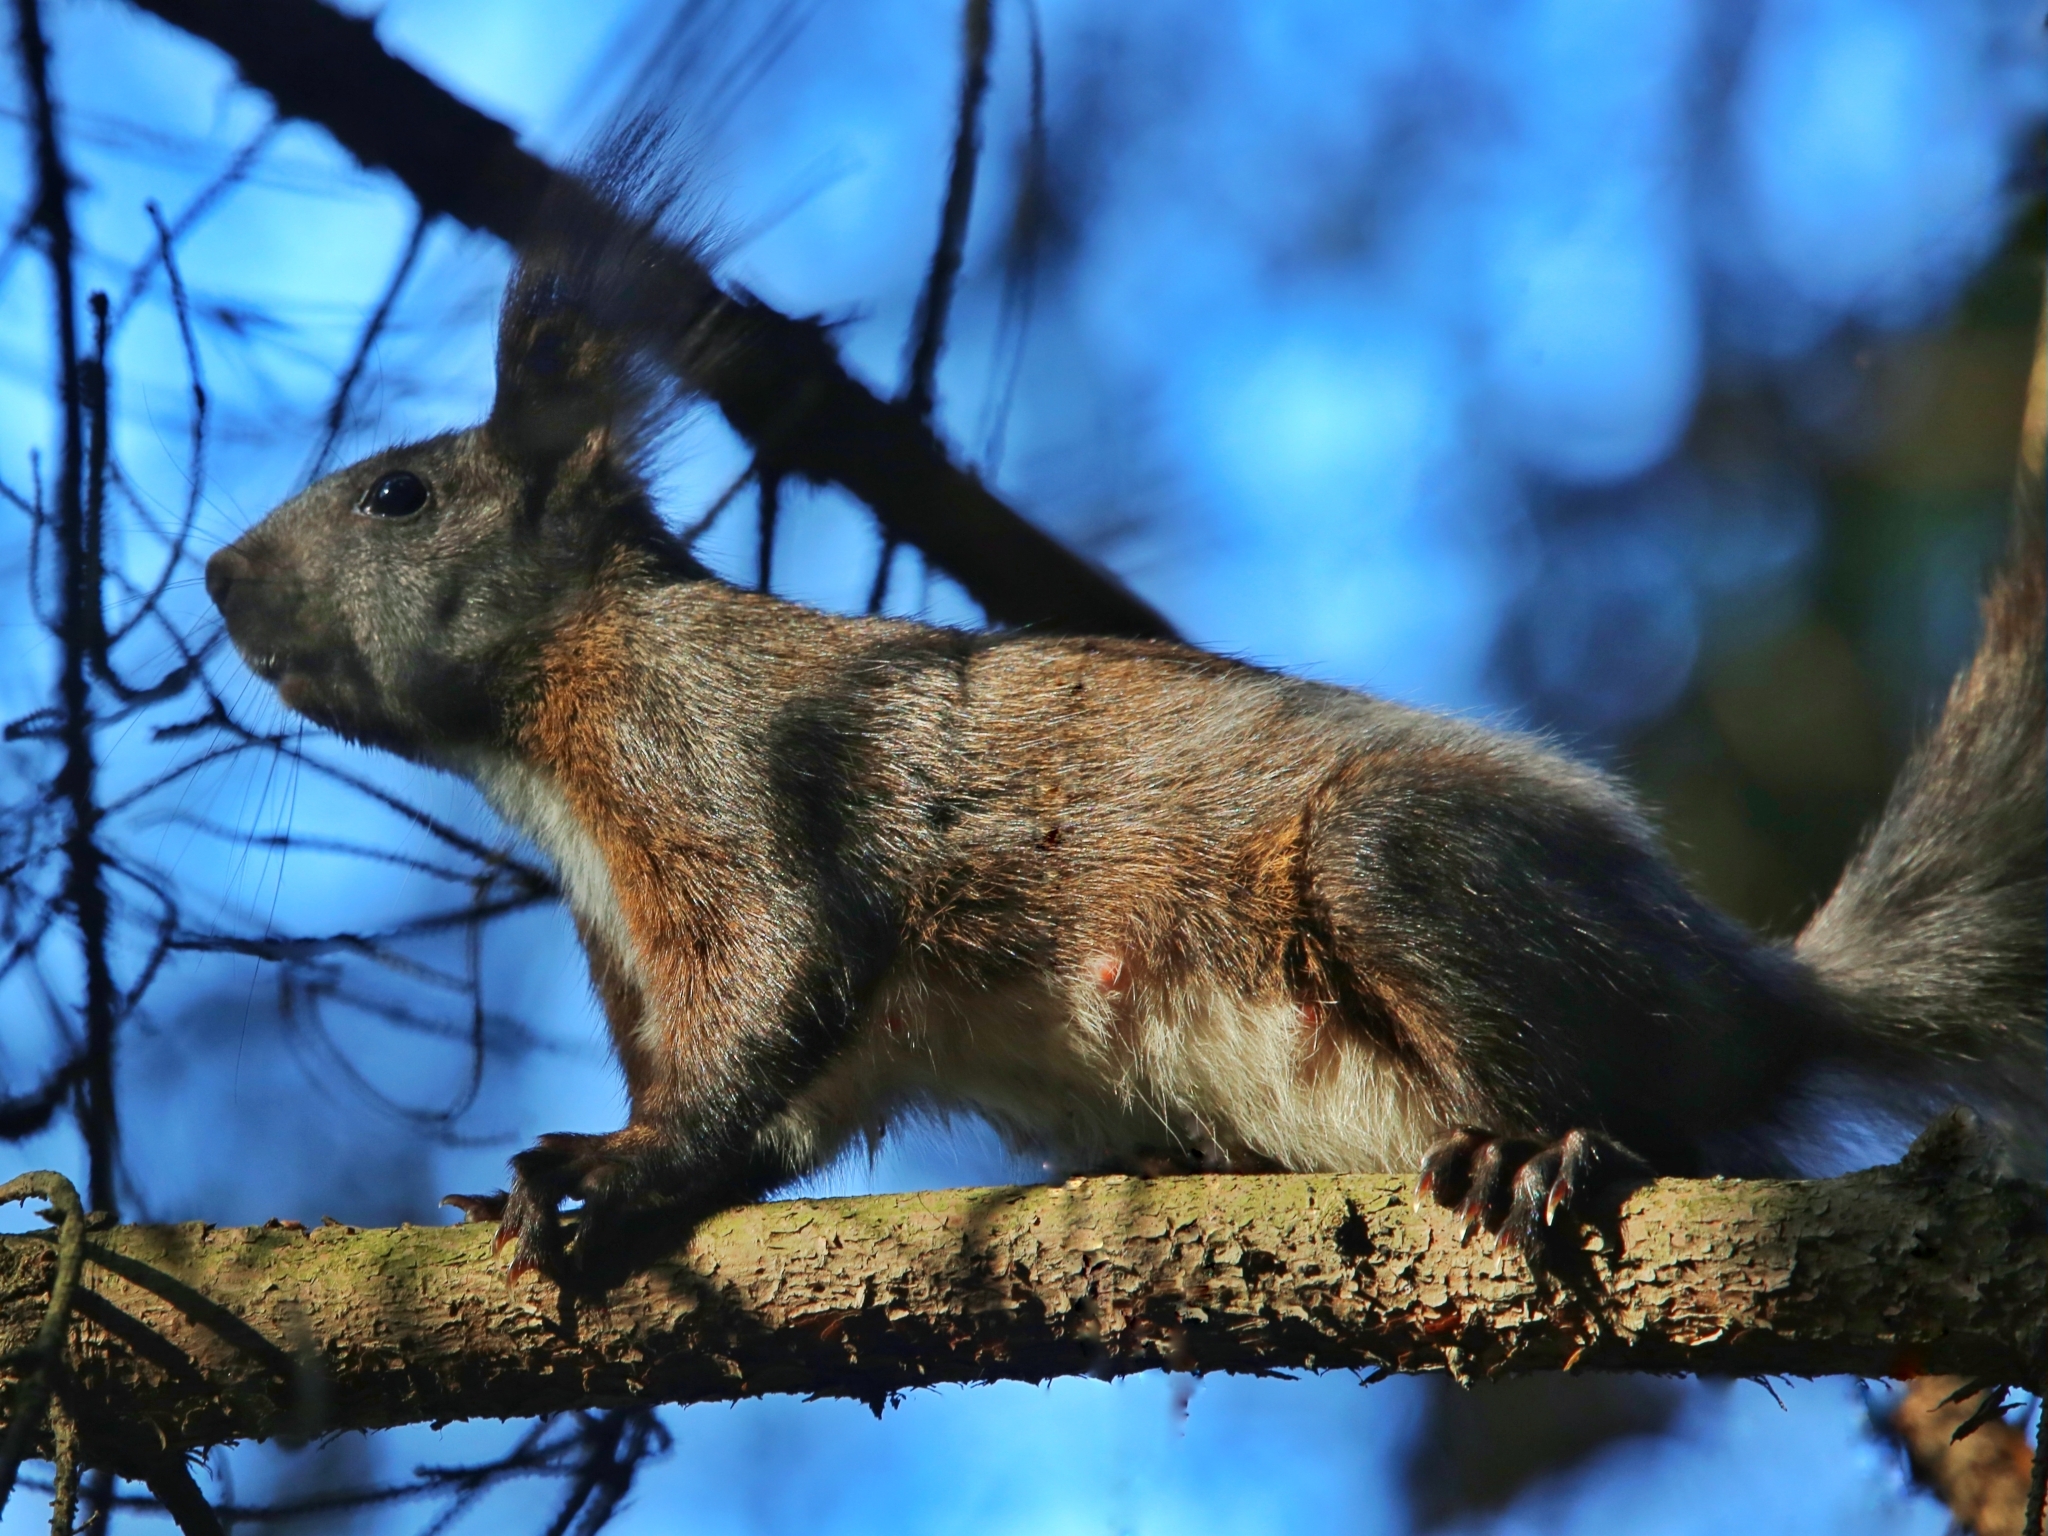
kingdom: Animalia
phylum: Chordata
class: Mammalia
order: Rodentia
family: Sciuridae
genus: Sciurus
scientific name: Sciurus vulgaris
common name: Eurasian red squirrel
